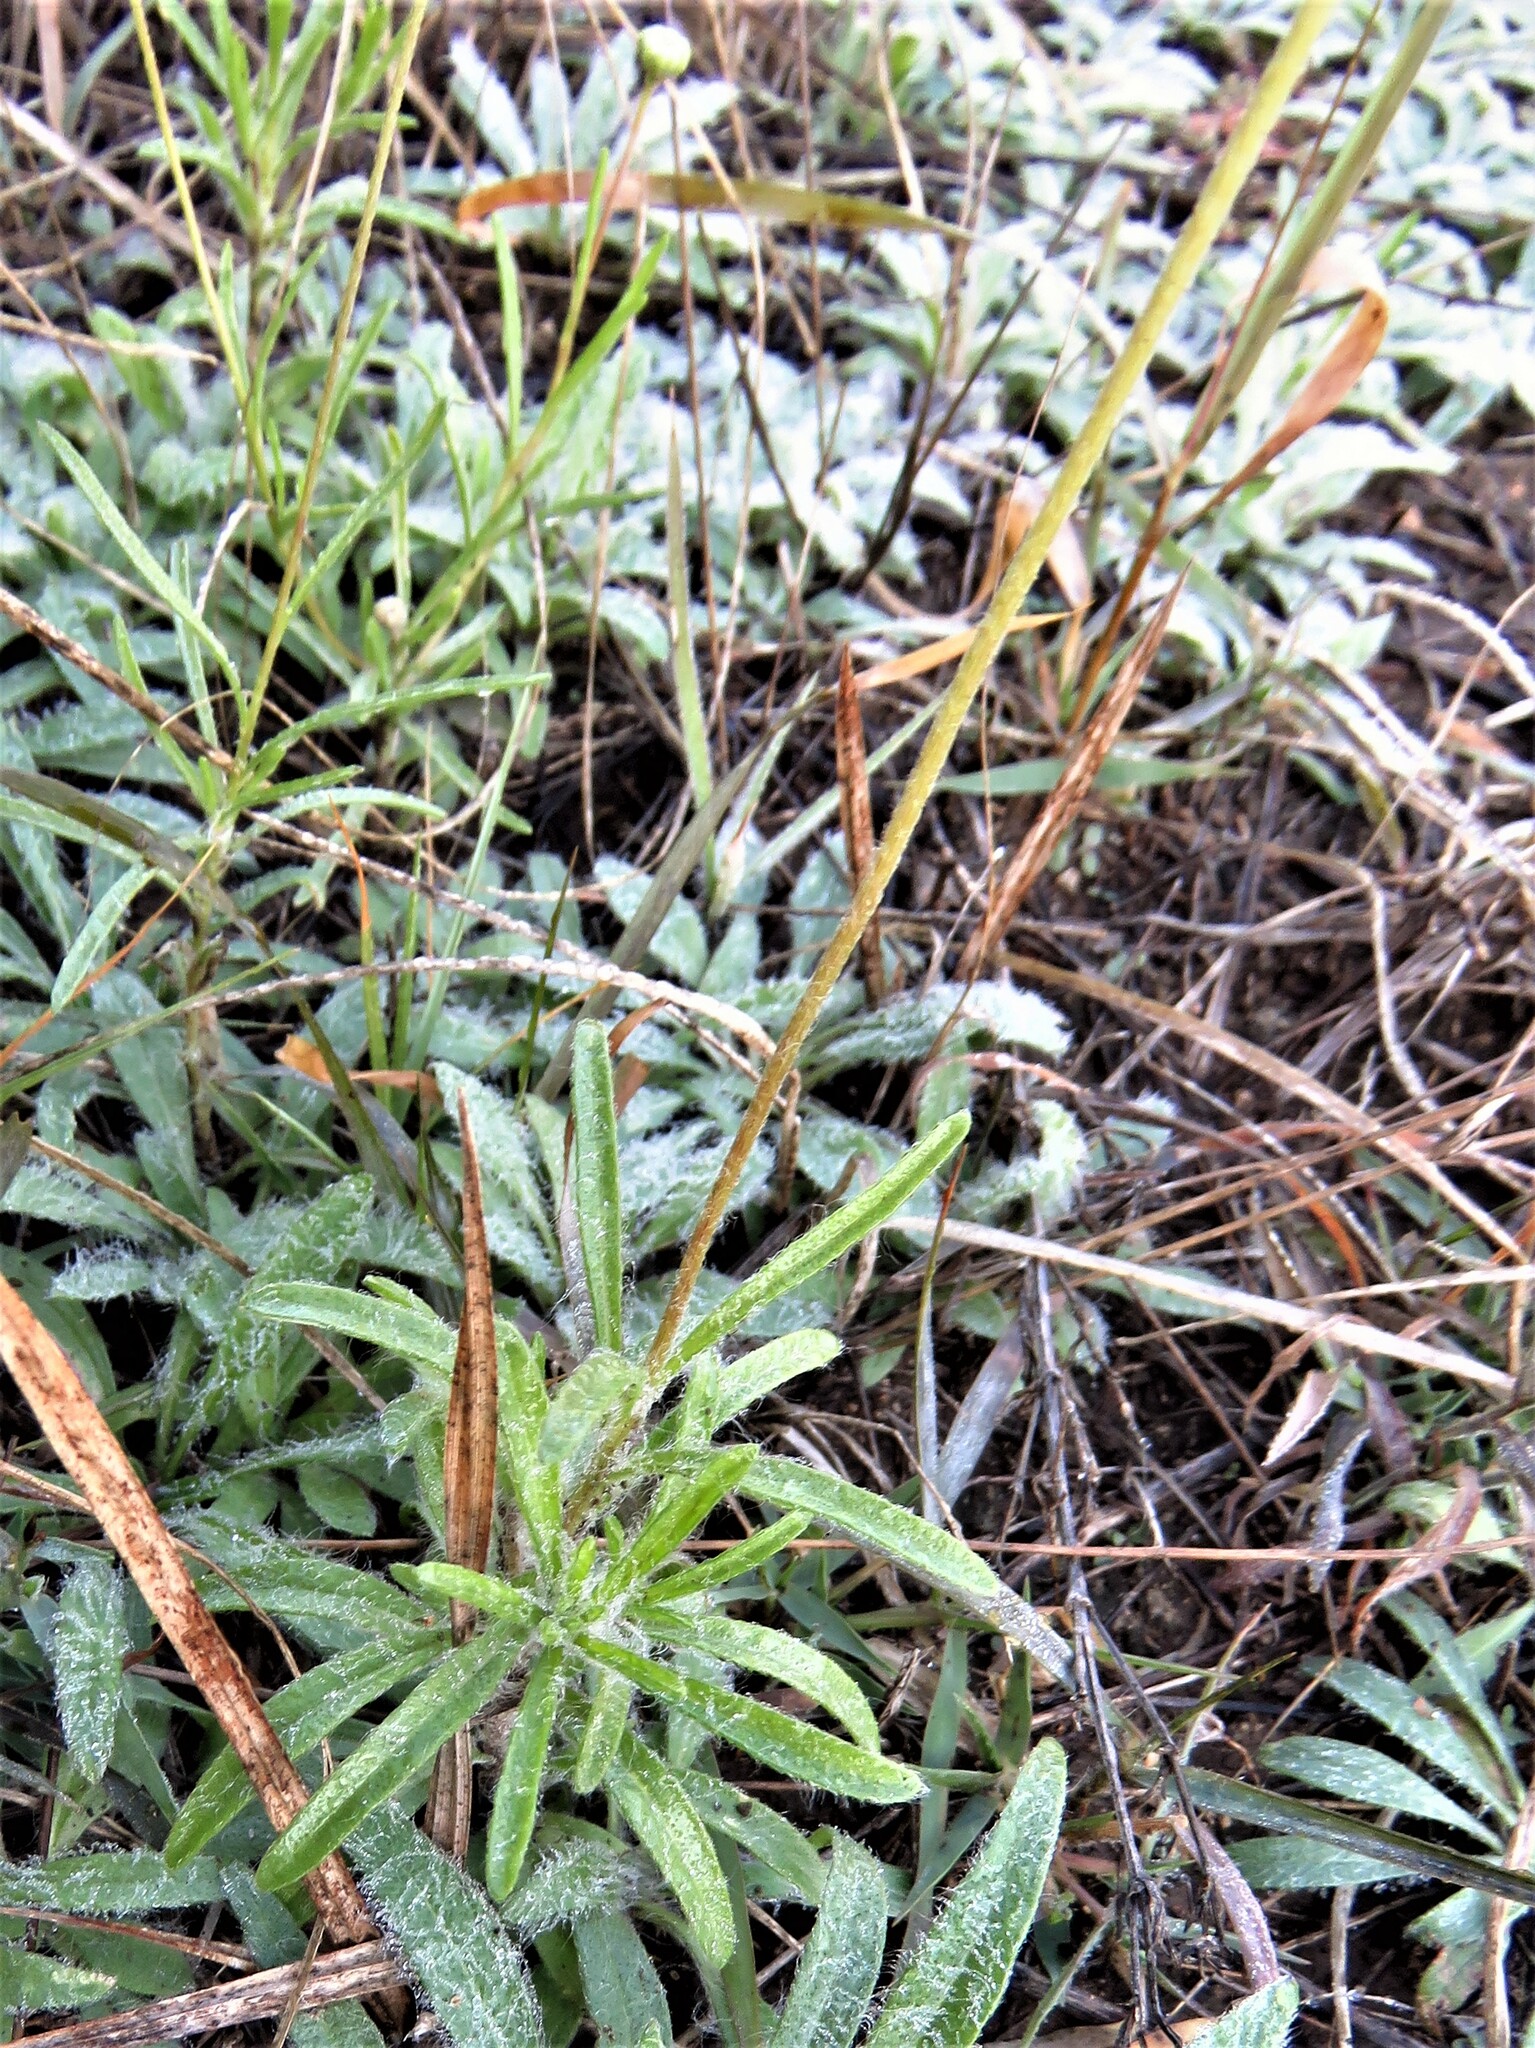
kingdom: Plantae
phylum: Tracheophyta
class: Magnoliopsida
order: Asterales
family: Asteraceae
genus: Tetraneuris
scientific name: Tetraneuris scaposa
